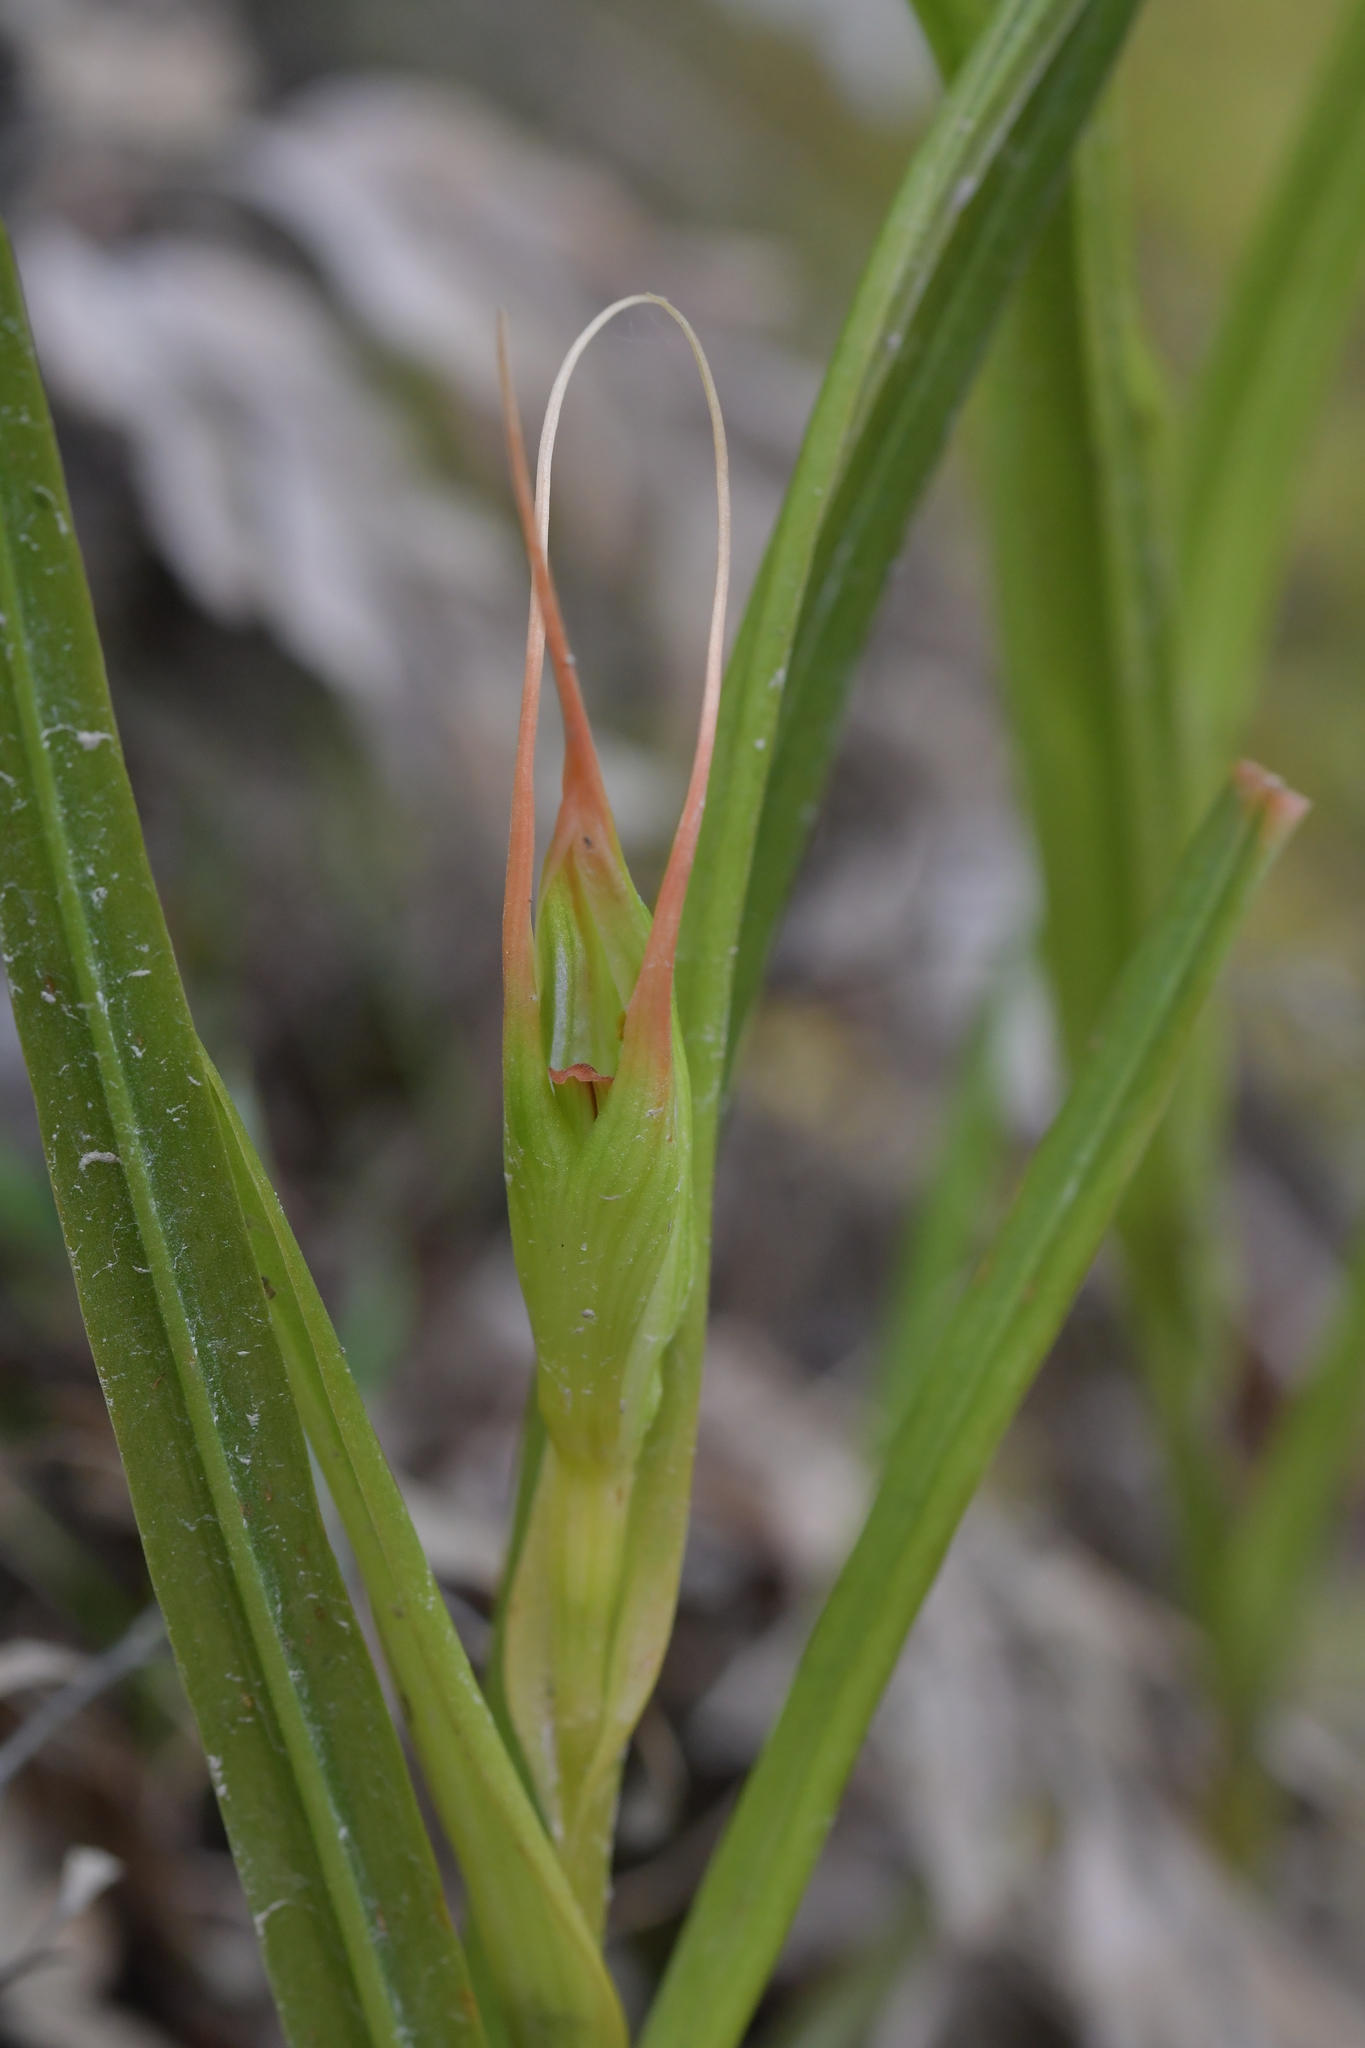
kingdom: Plantae
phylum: Tracheophyta
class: Liliopsida
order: Asparagales
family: Orchidaceae
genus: Pterostylis
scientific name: Pterostylis banksii
